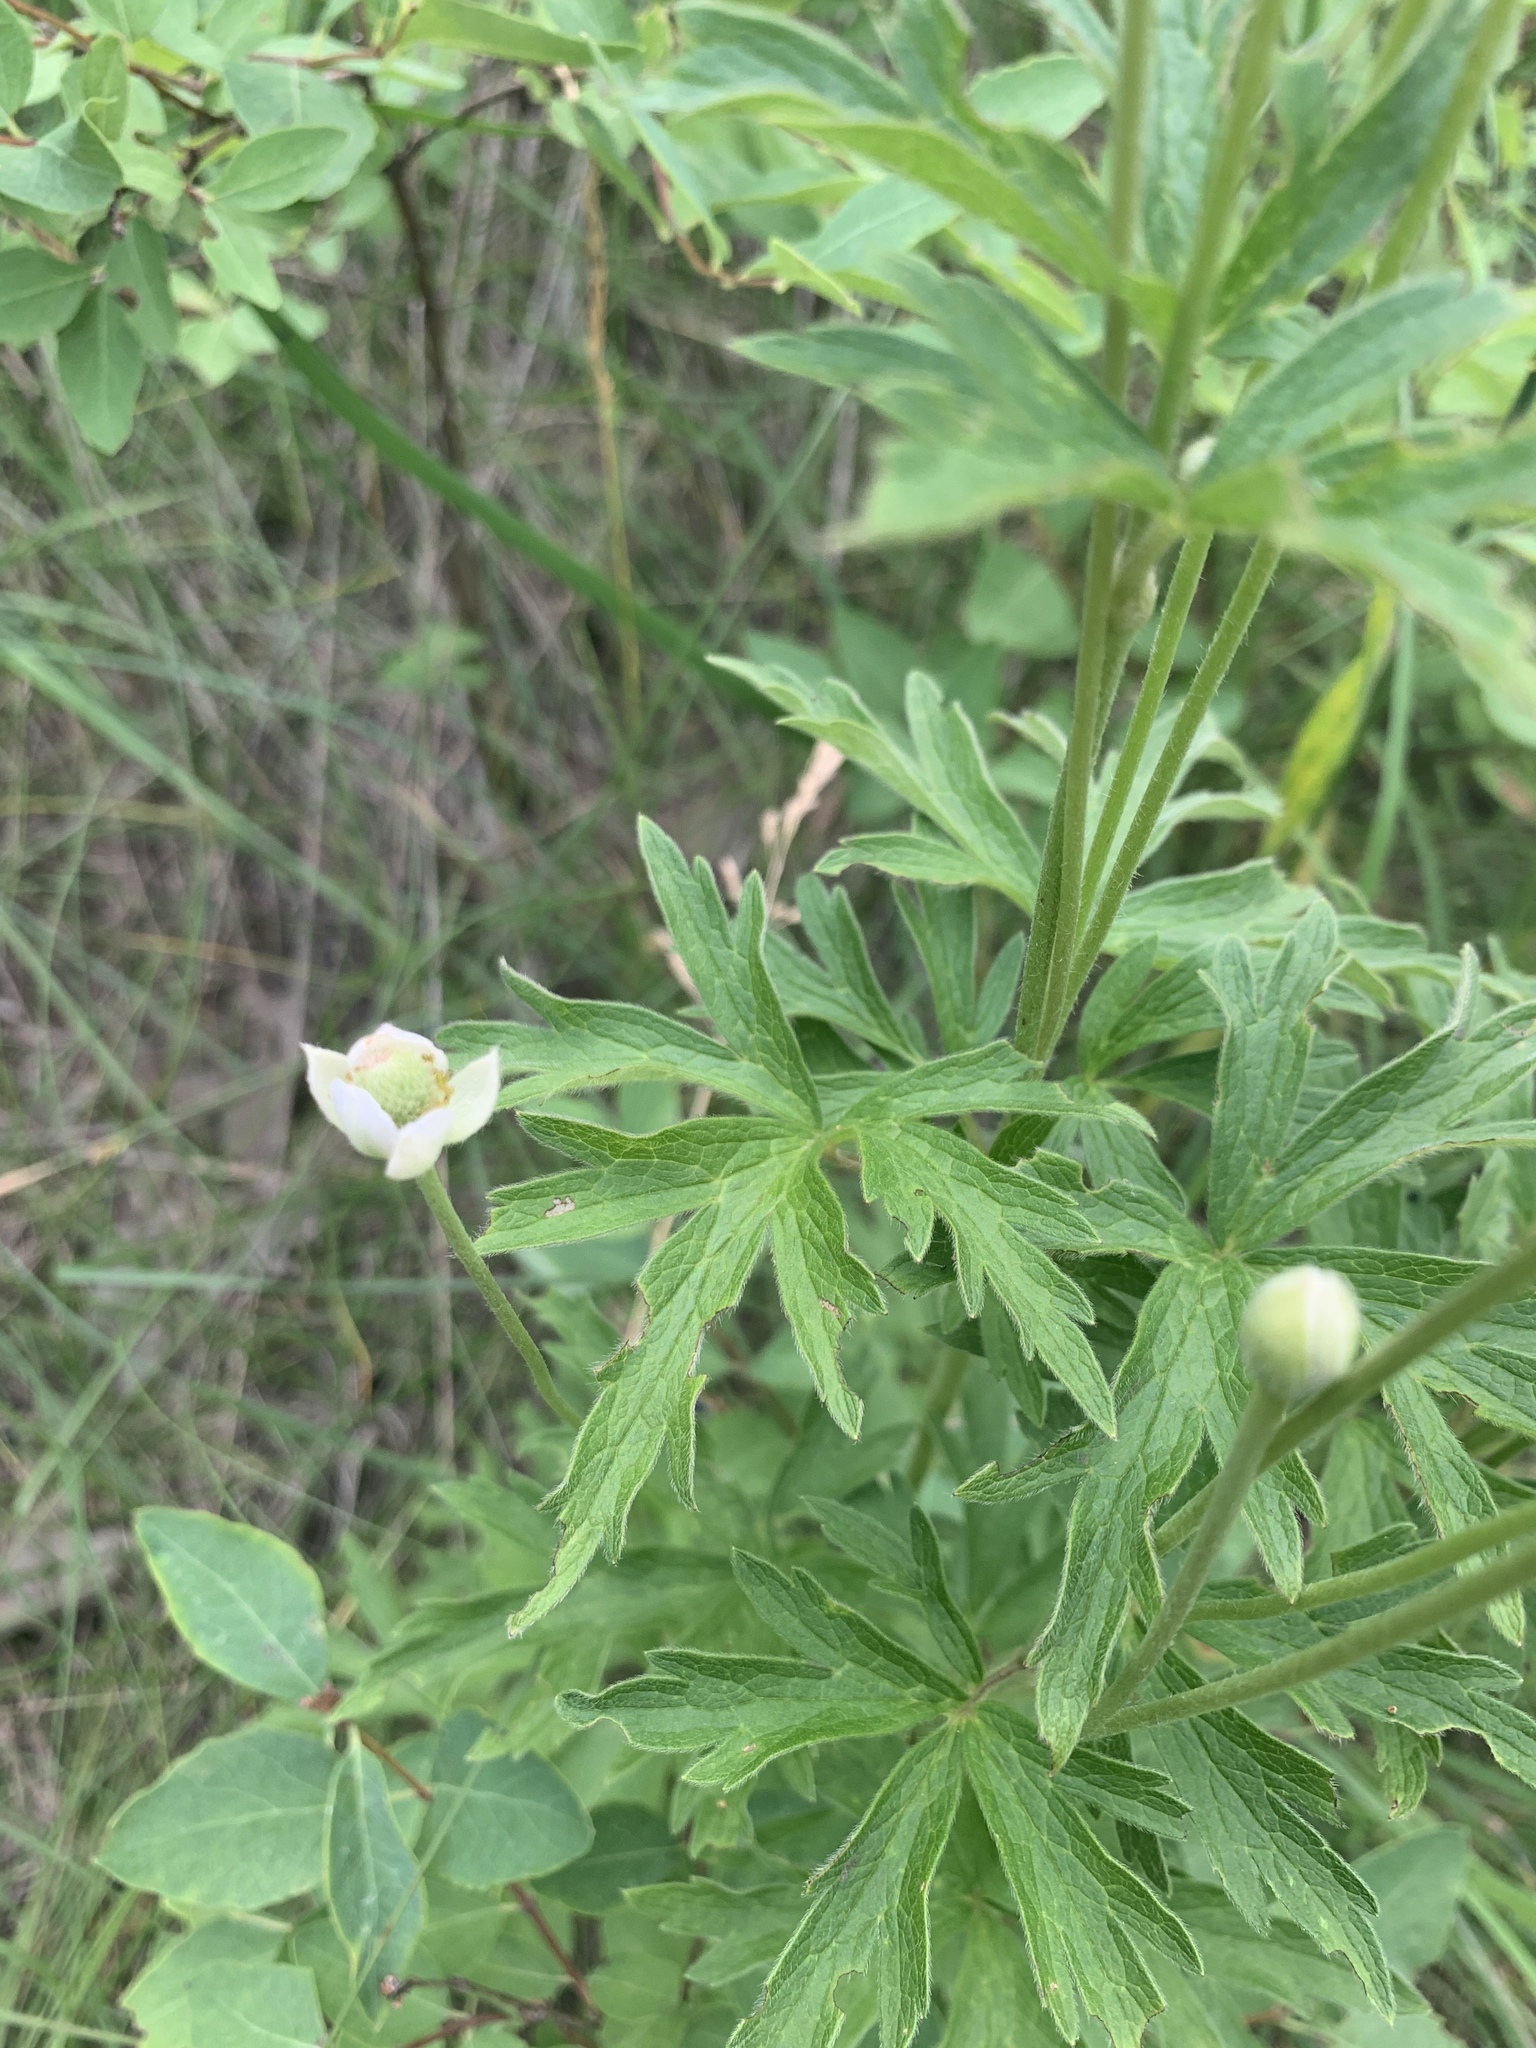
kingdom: Plantae
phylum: Tracheophyta
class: Magnoliopsida
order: Ranunculales
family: Ranunculaceae
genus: Anemone
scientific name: Anemone cylindrica
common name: Candle anemone
